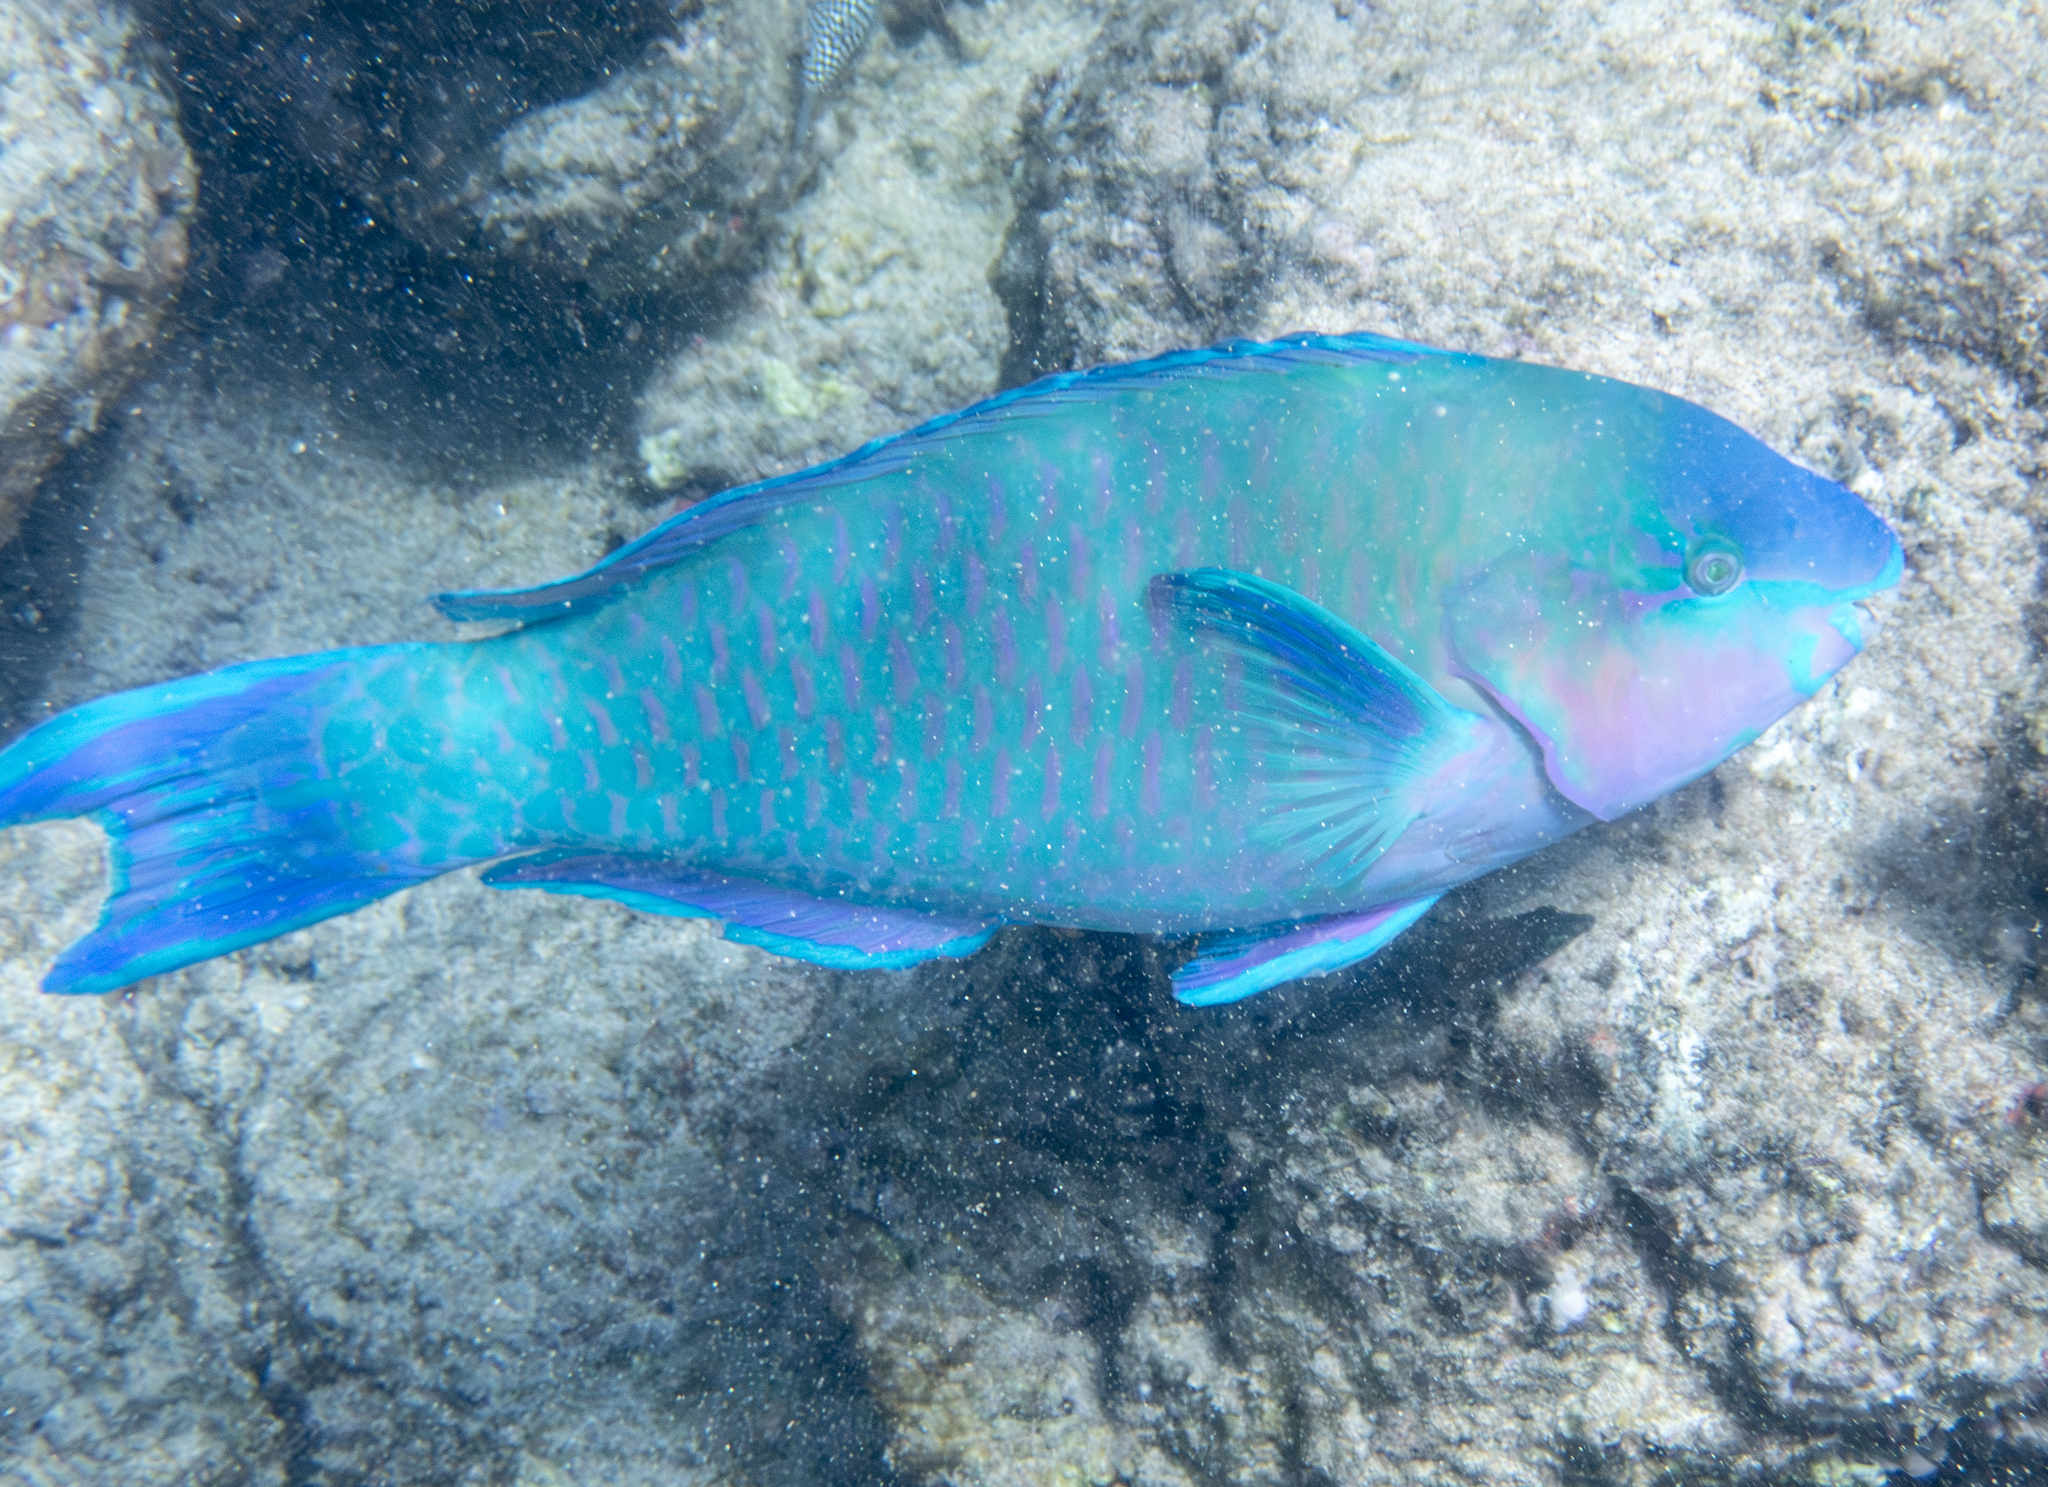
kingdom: Animalia
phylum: Chordata
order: Perciformes
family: Scaridae
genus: Scarus
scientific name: Scarus psittacus
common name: Palenose parrotfish
